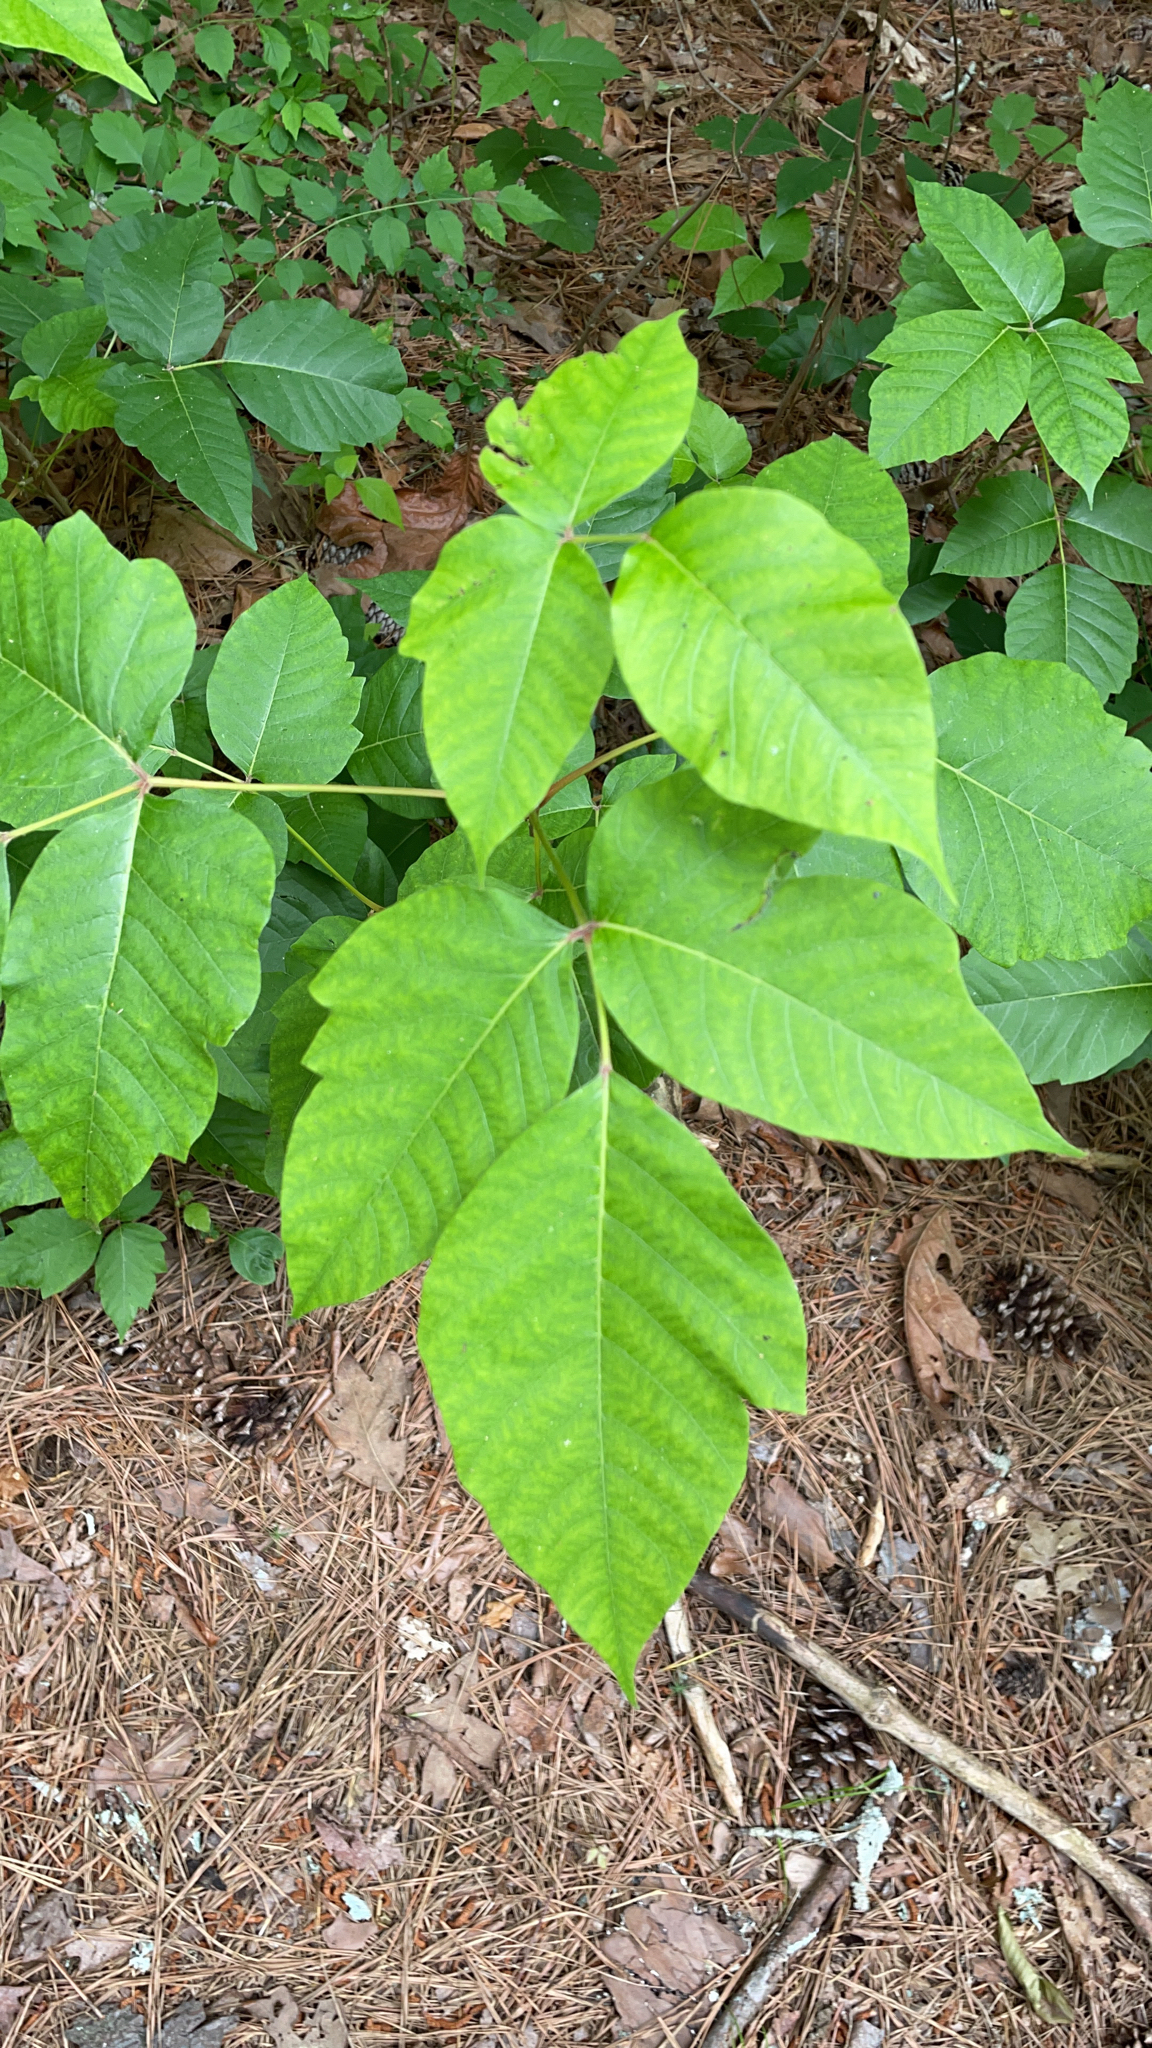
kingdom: Plantae
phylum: Tracheophyta
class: Magnoliopsida
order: Sapindales
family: Anacardiaceae
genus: Toxicodendron
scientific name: Toxicodendron radicans
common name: Poison ivy
